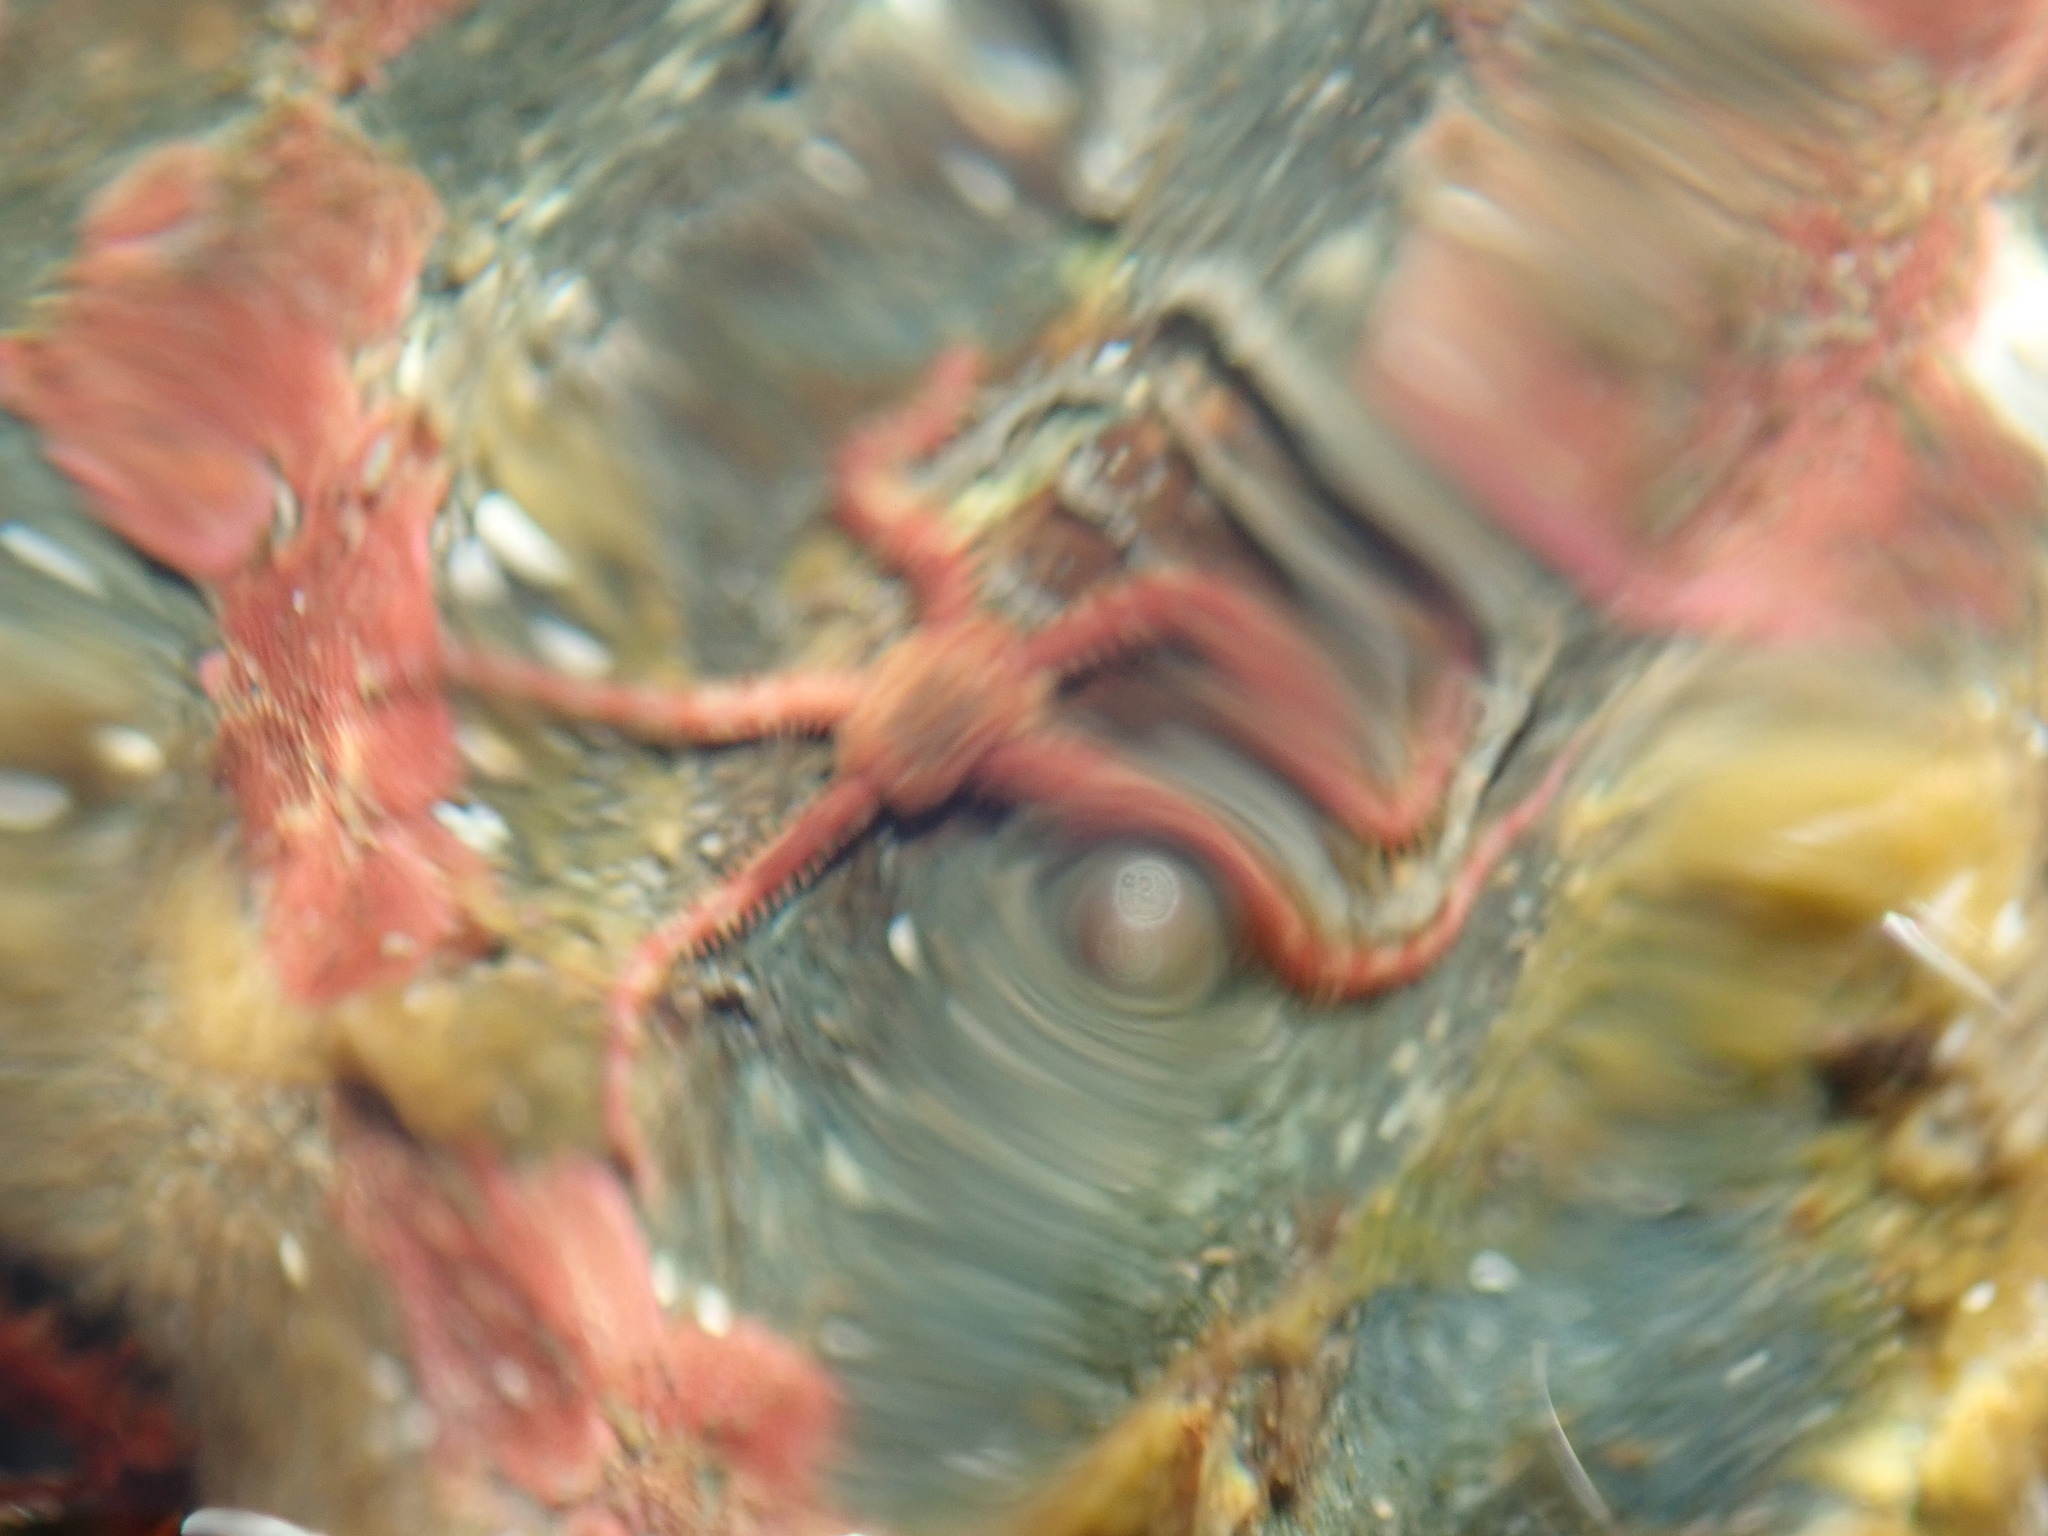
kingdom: Animalia
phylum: Echinodermata
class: Ophiuroidea
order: Amphilepidida
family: Ophiopholidae
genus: Ophiopholis
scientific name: Ophiopholis aculeata
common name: Crevice brittlestar
